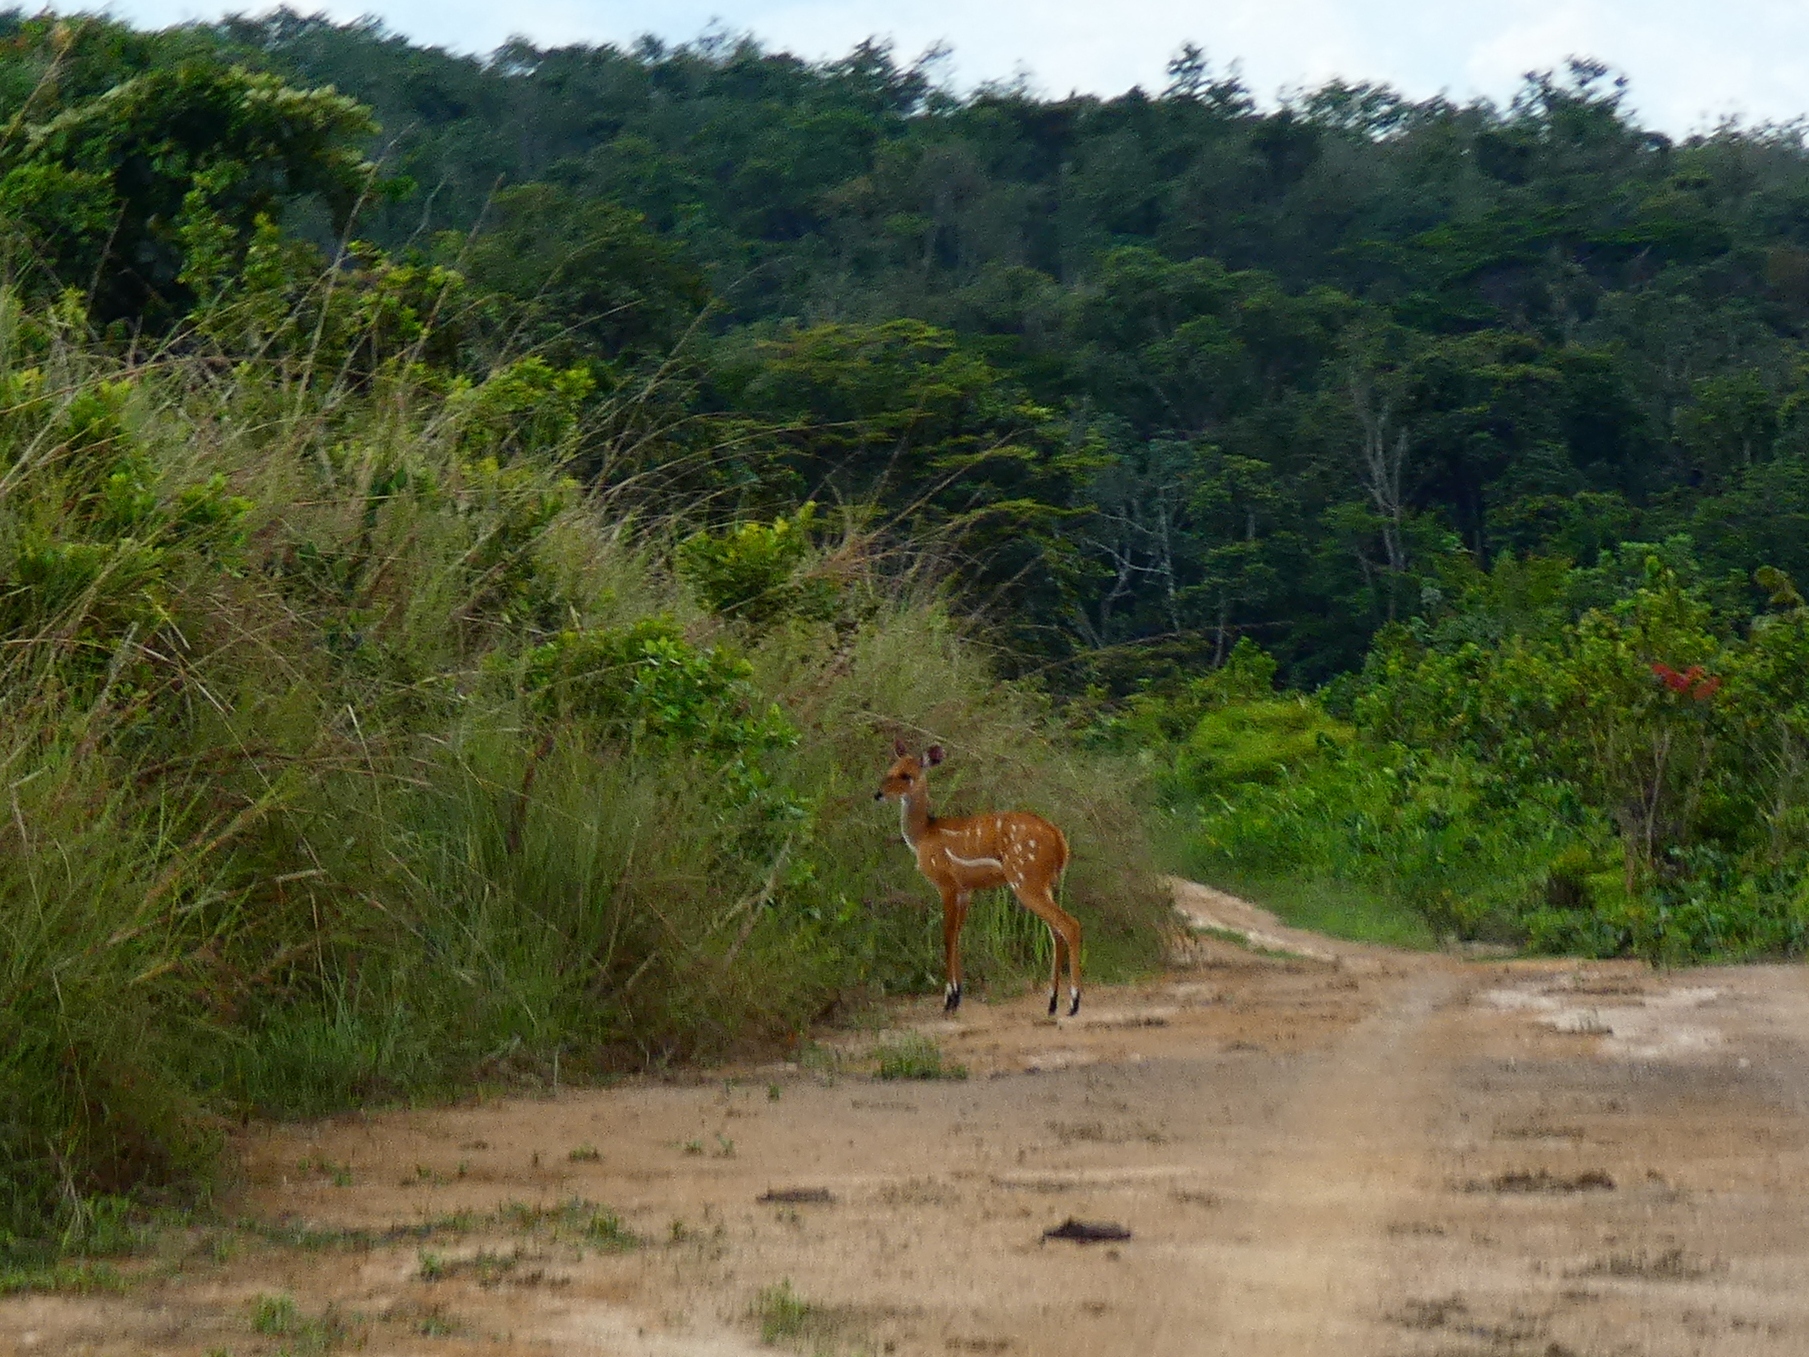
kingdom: Animalia
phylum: Chordata
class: Mammalia
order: Artiodactyla
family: Bovidae
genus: Tragelaphus
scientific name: Tragelaphus scriptus
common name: Bushbuck
